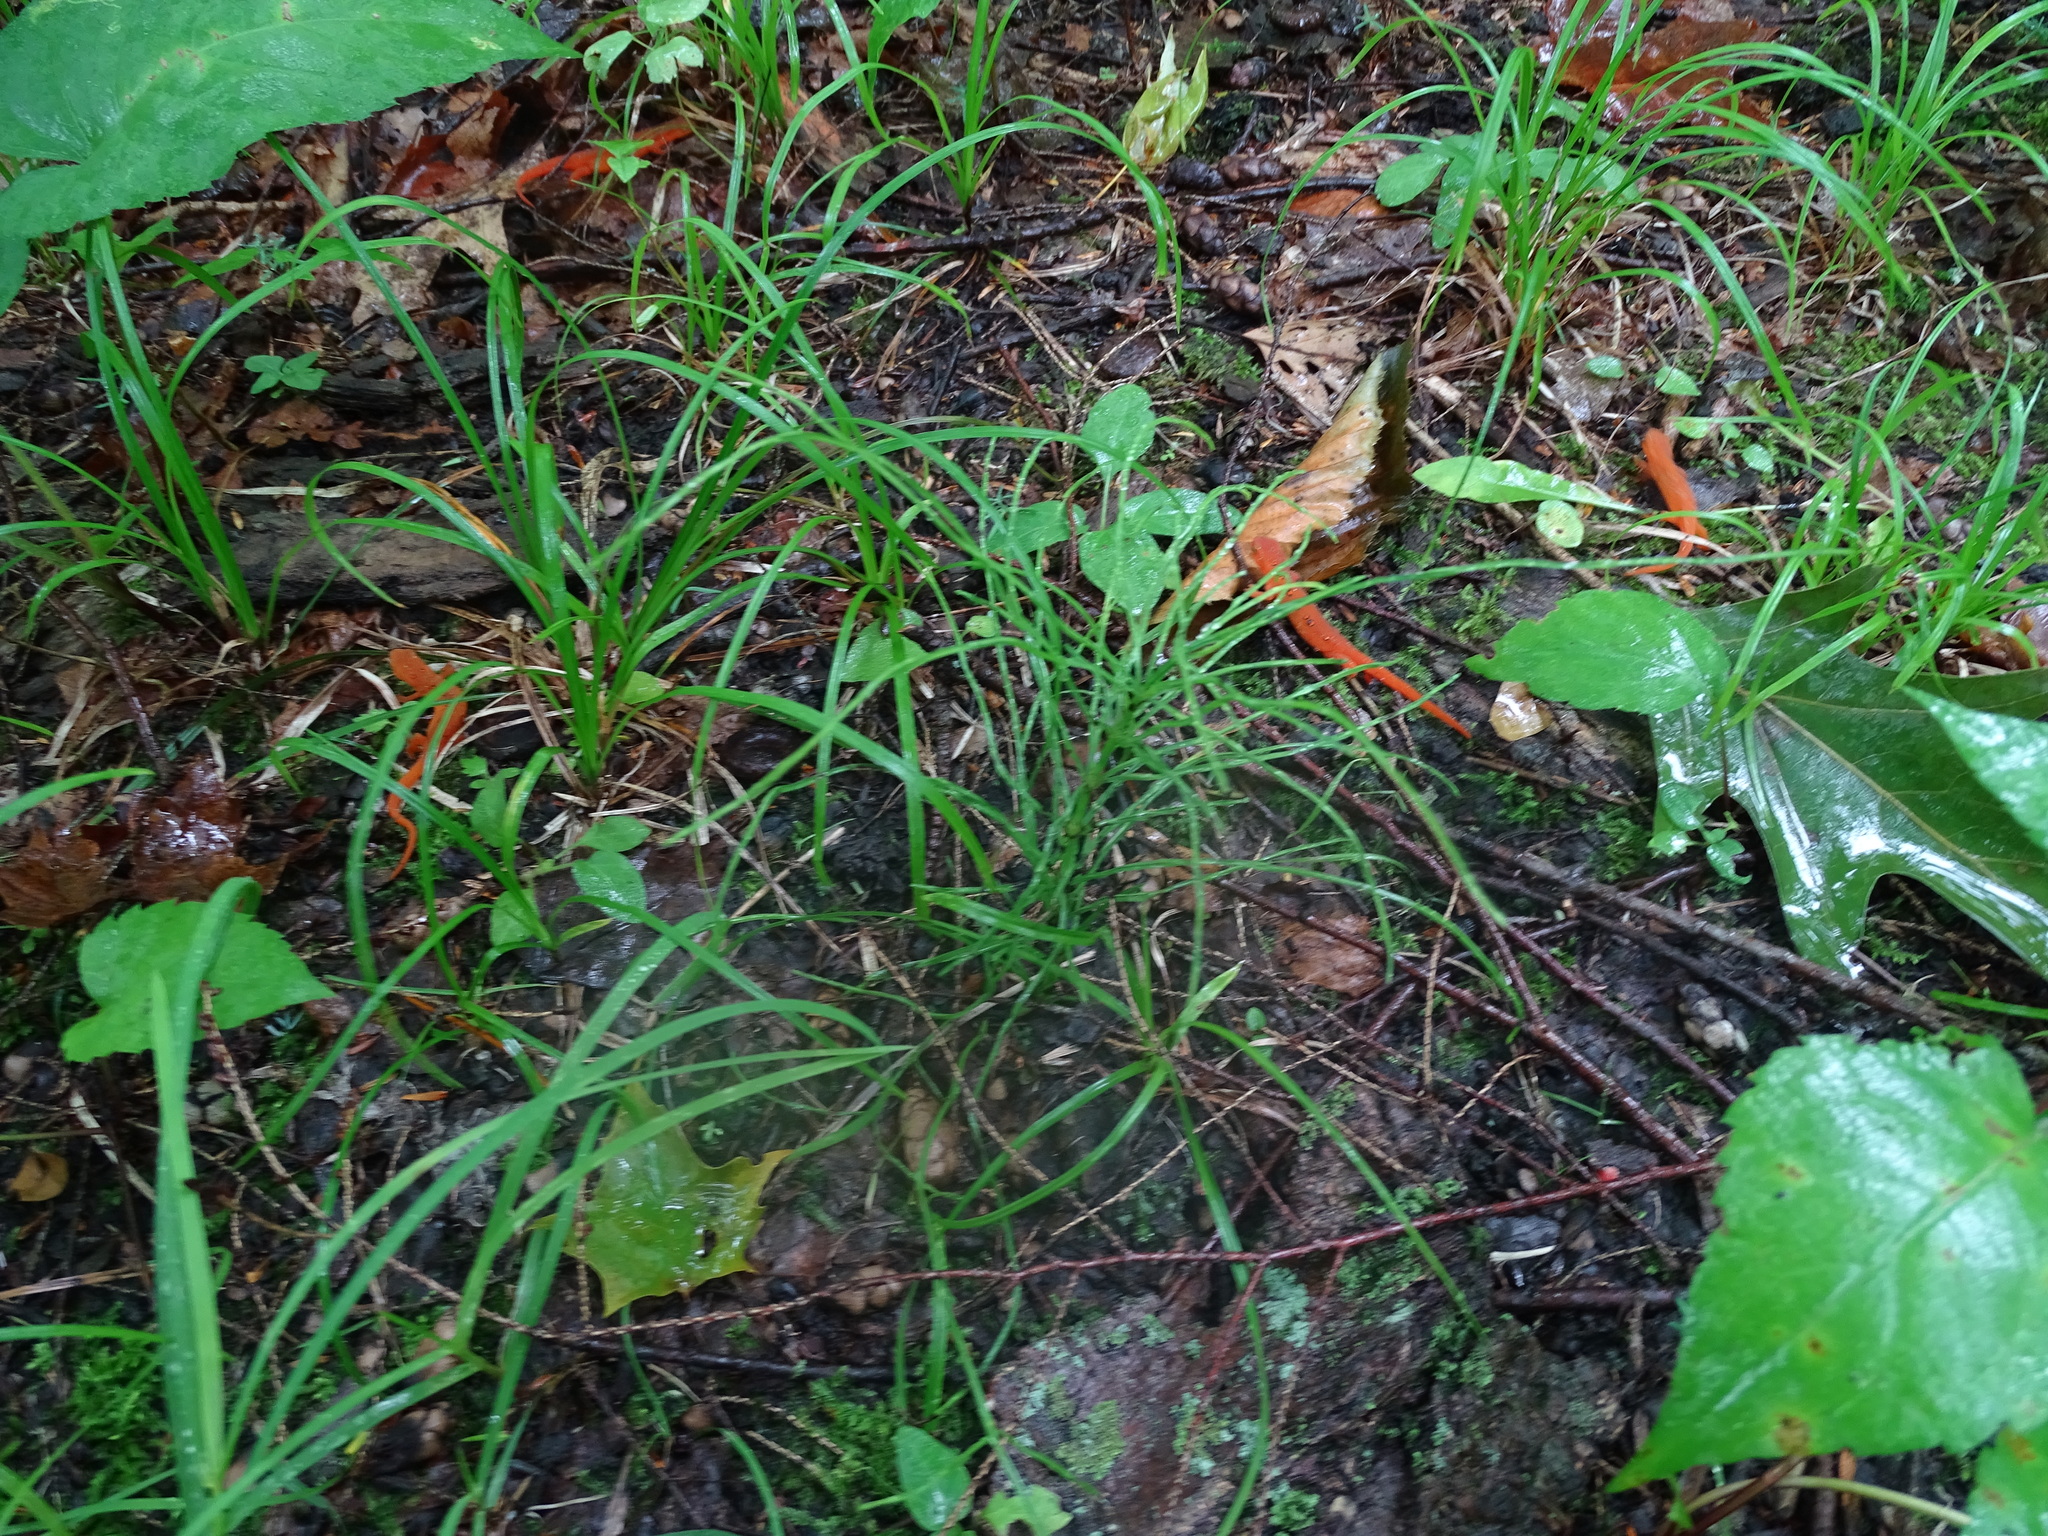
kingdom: Animalia
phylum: Chordata
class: Amphibia
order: Caudata
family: Salamandridae
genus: Notophthalmus
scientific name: Notophthalmus viridescens
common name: Eastern newt
